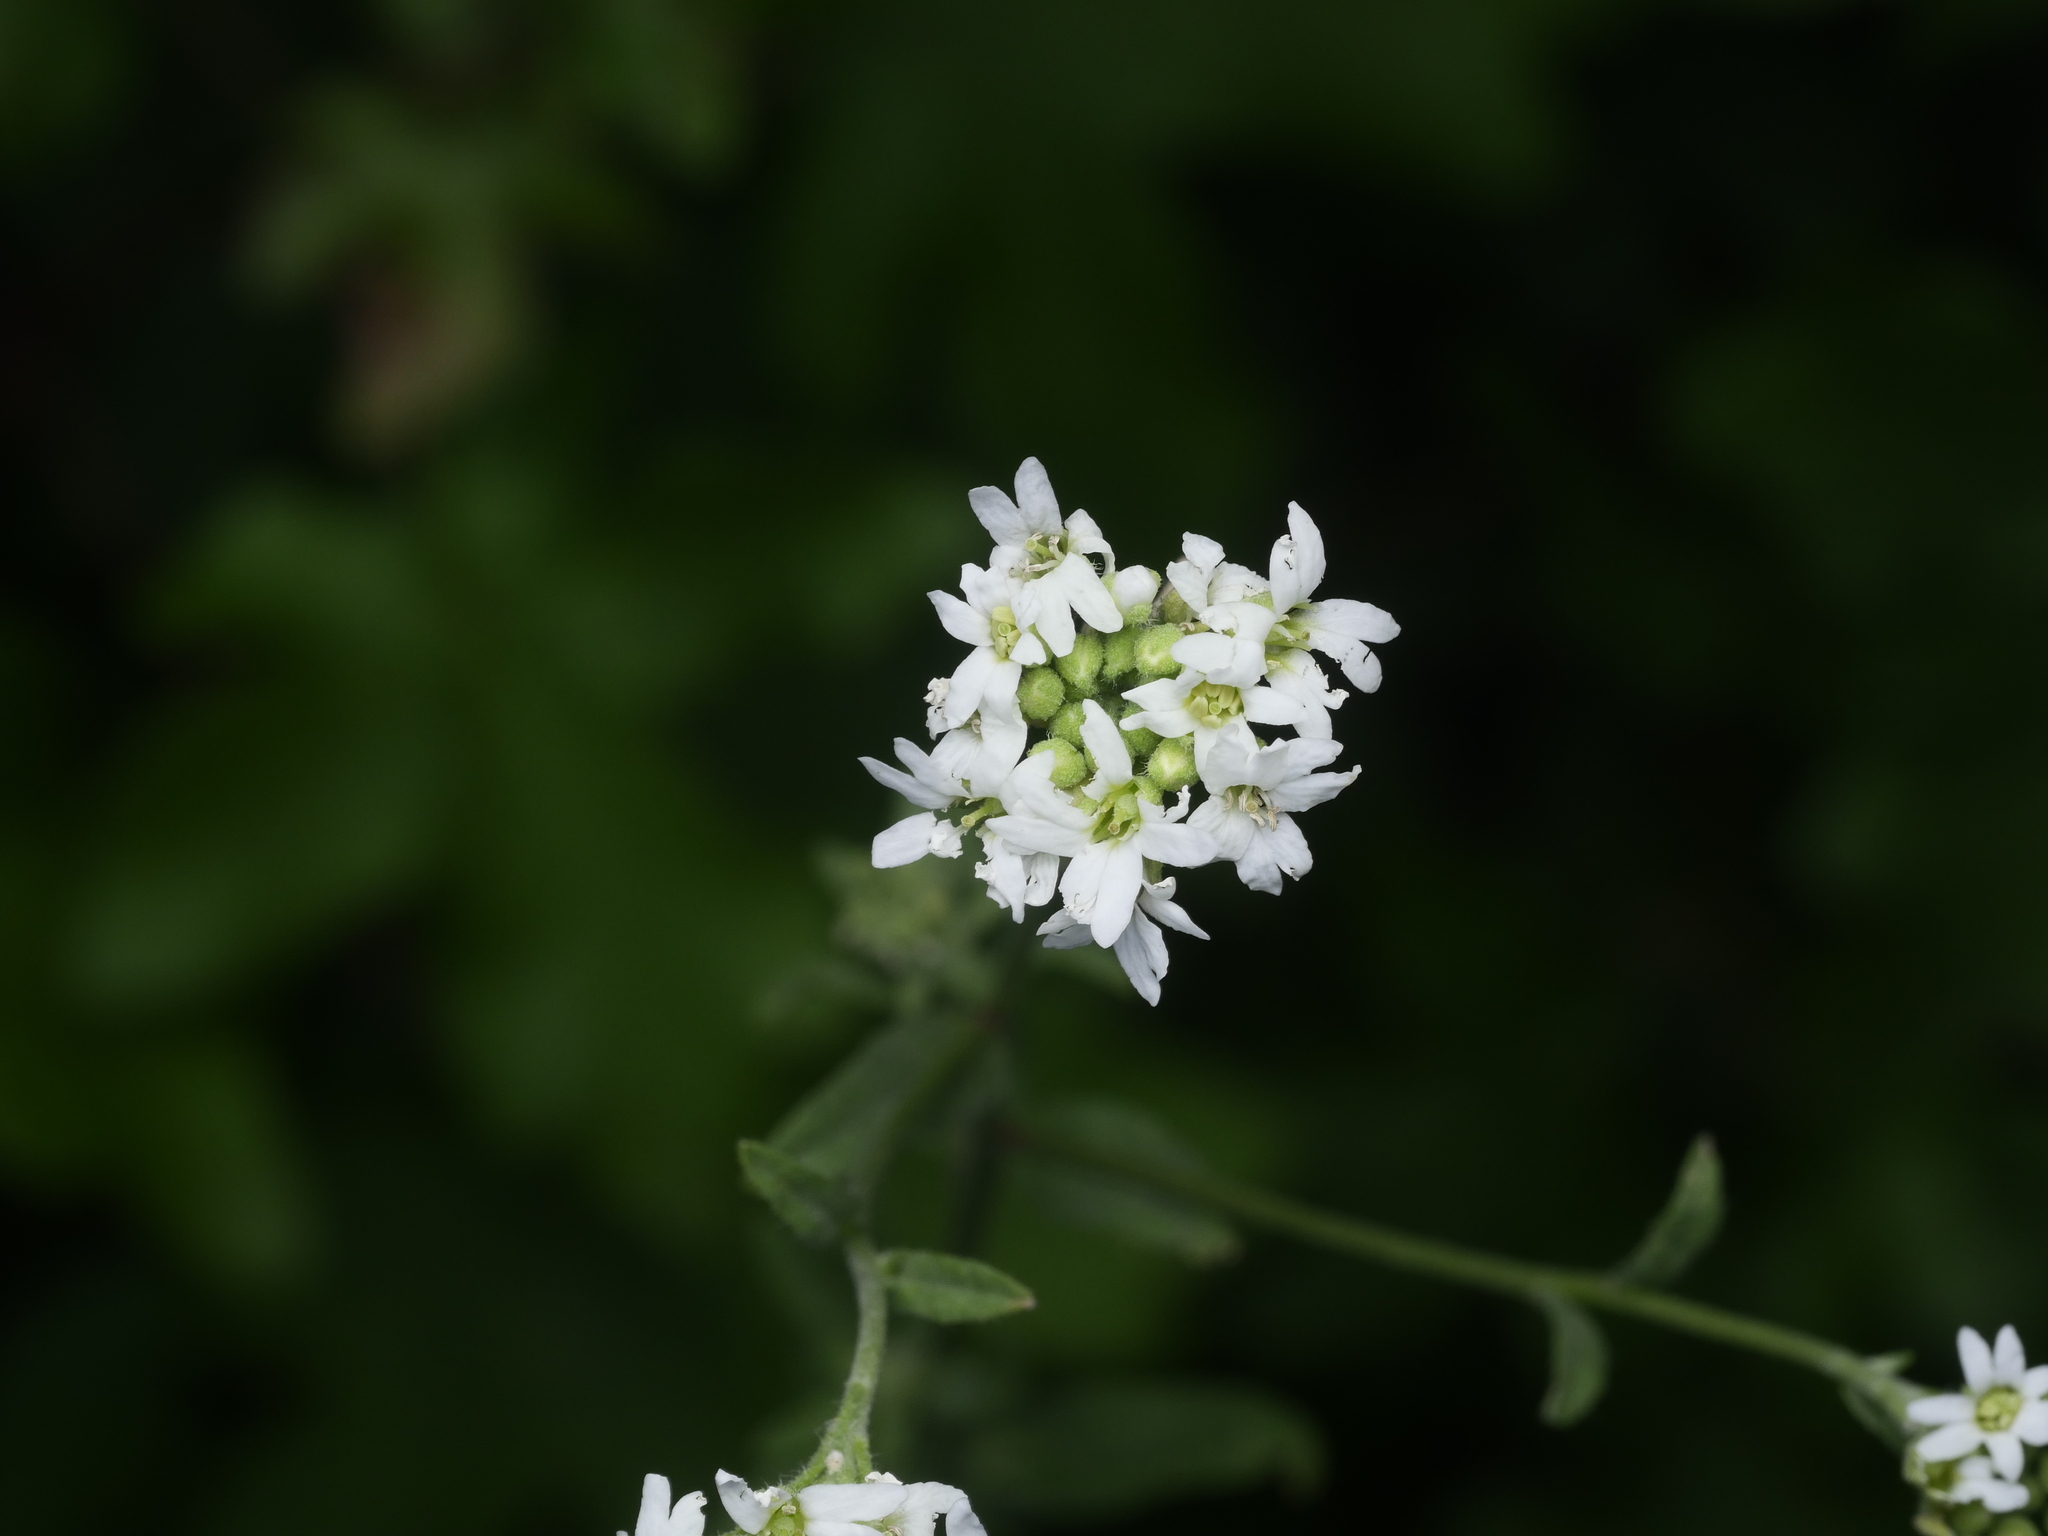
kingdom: Plantae
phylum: Tracheophyta
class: Magnoliopsida
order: Brassicales
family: Brassicaceae
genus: Berteroa
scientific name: Berteroa incana
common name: Hoary alison
